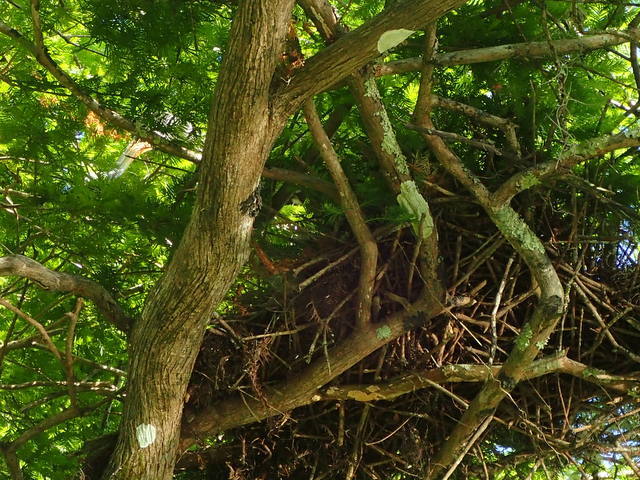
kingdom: Animalia
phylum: Chordata
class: Aves
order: Gruiformes
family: Aramidae
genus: Aramus
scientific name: Aramus guarauna
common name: Limpkin
